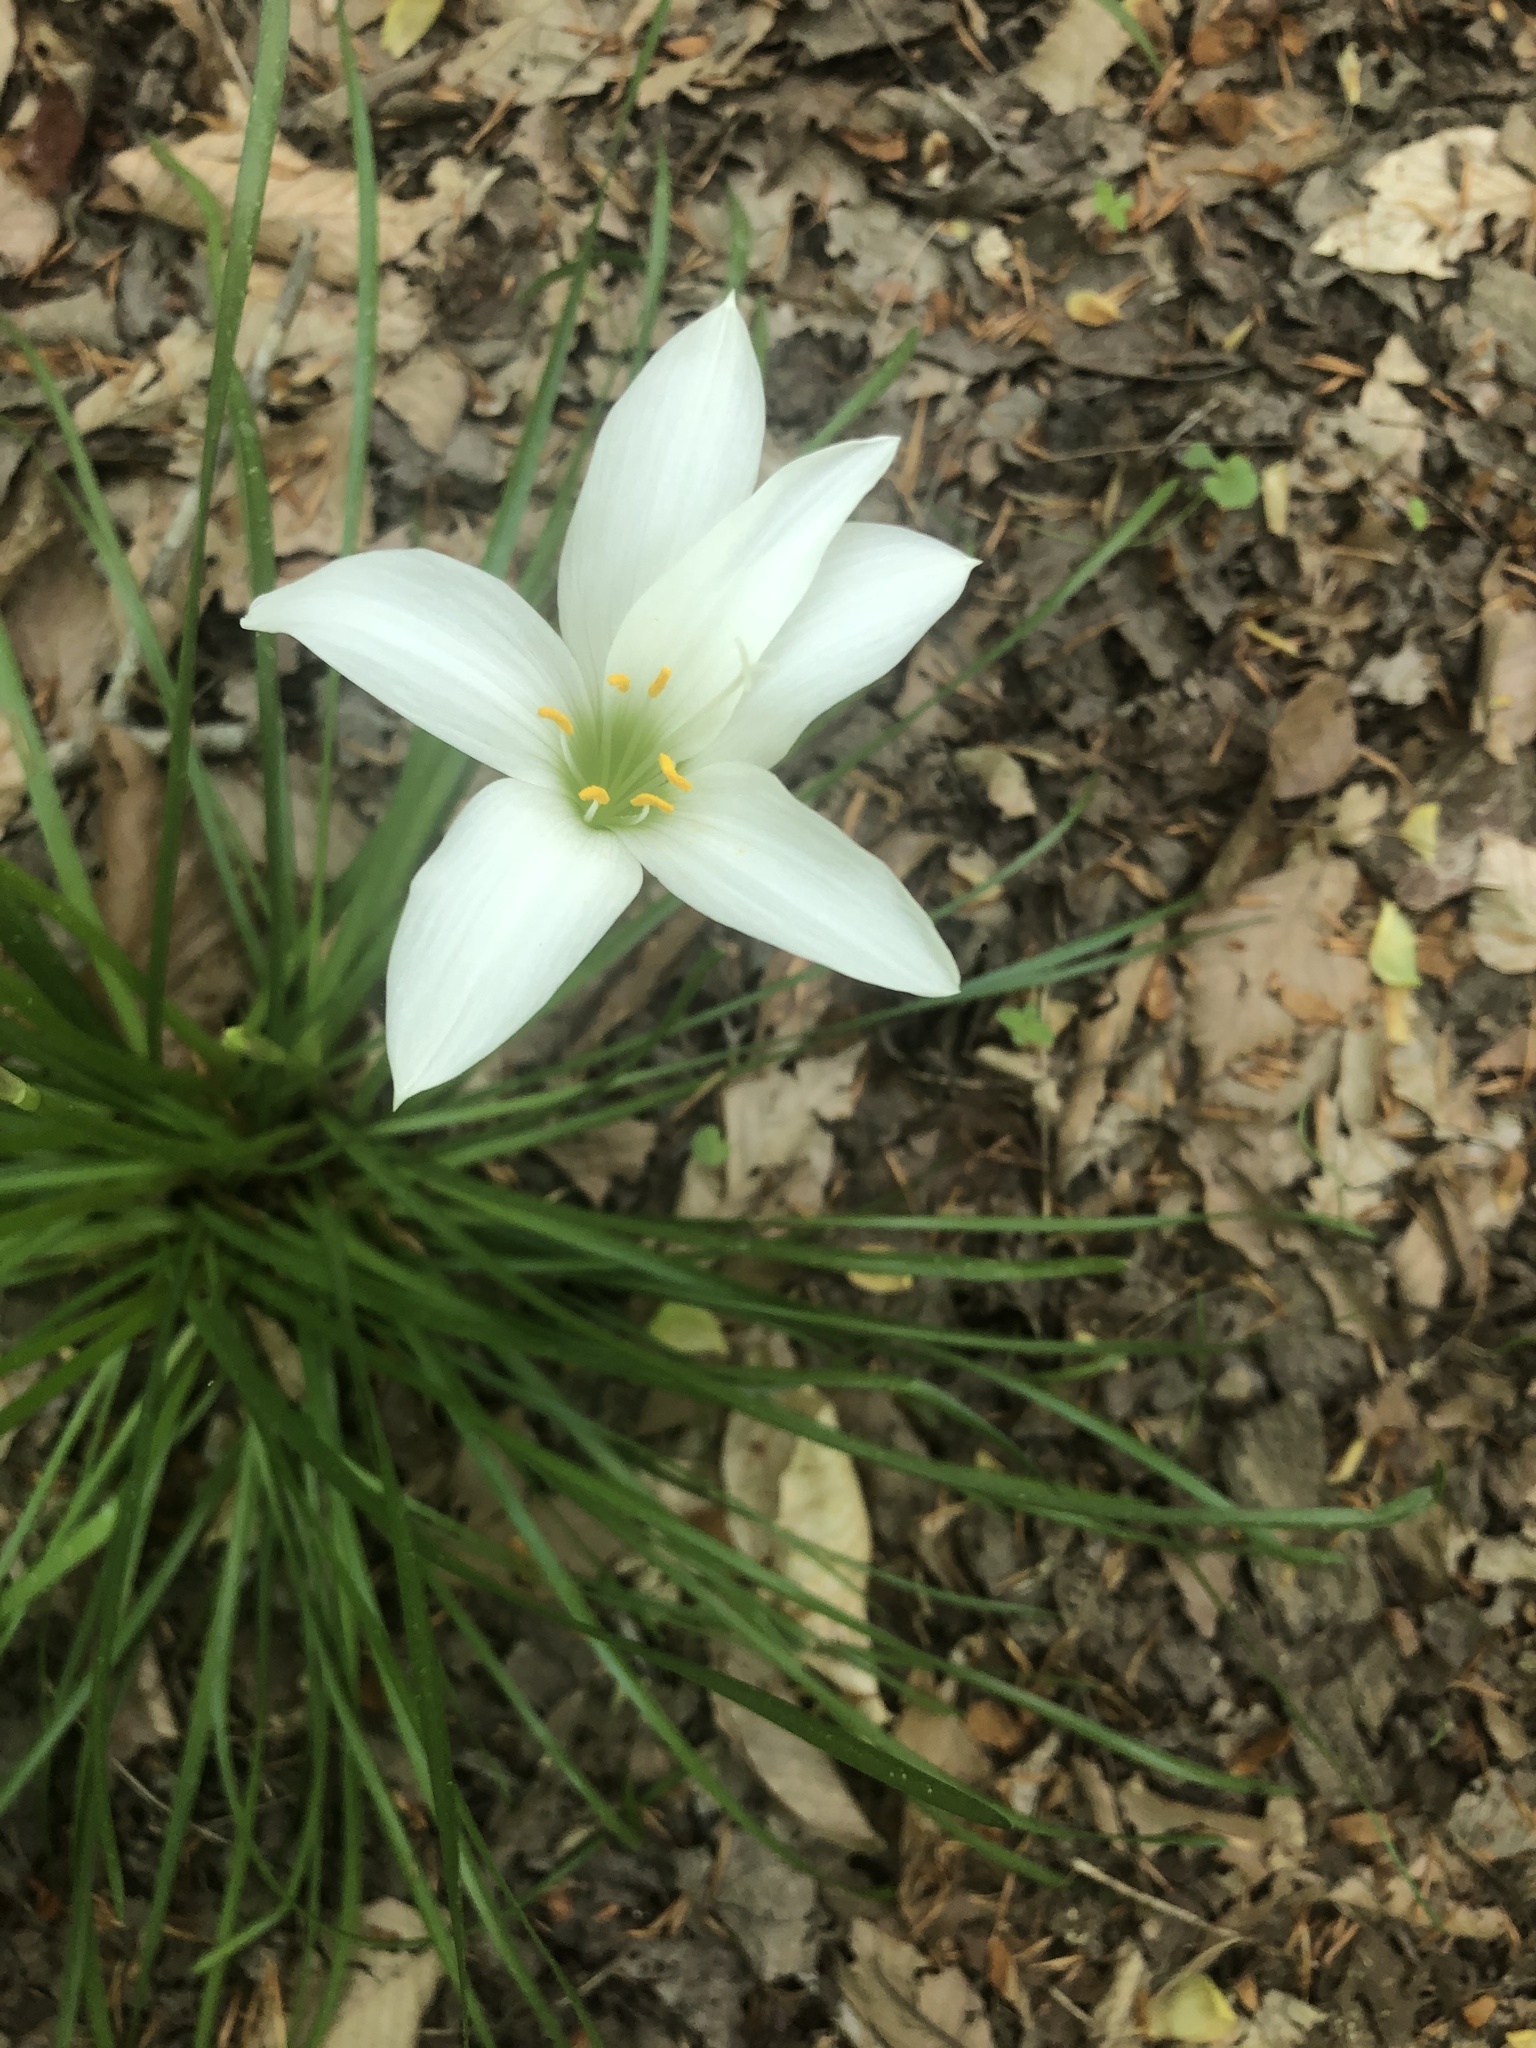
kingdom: Plantae
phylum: Tracheophyta
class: Liliopsida
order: Asparagales
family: Amaryllidaceae
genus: Zephyranthes
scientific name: Zephyranthes atamasco
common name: Atamasco lily
